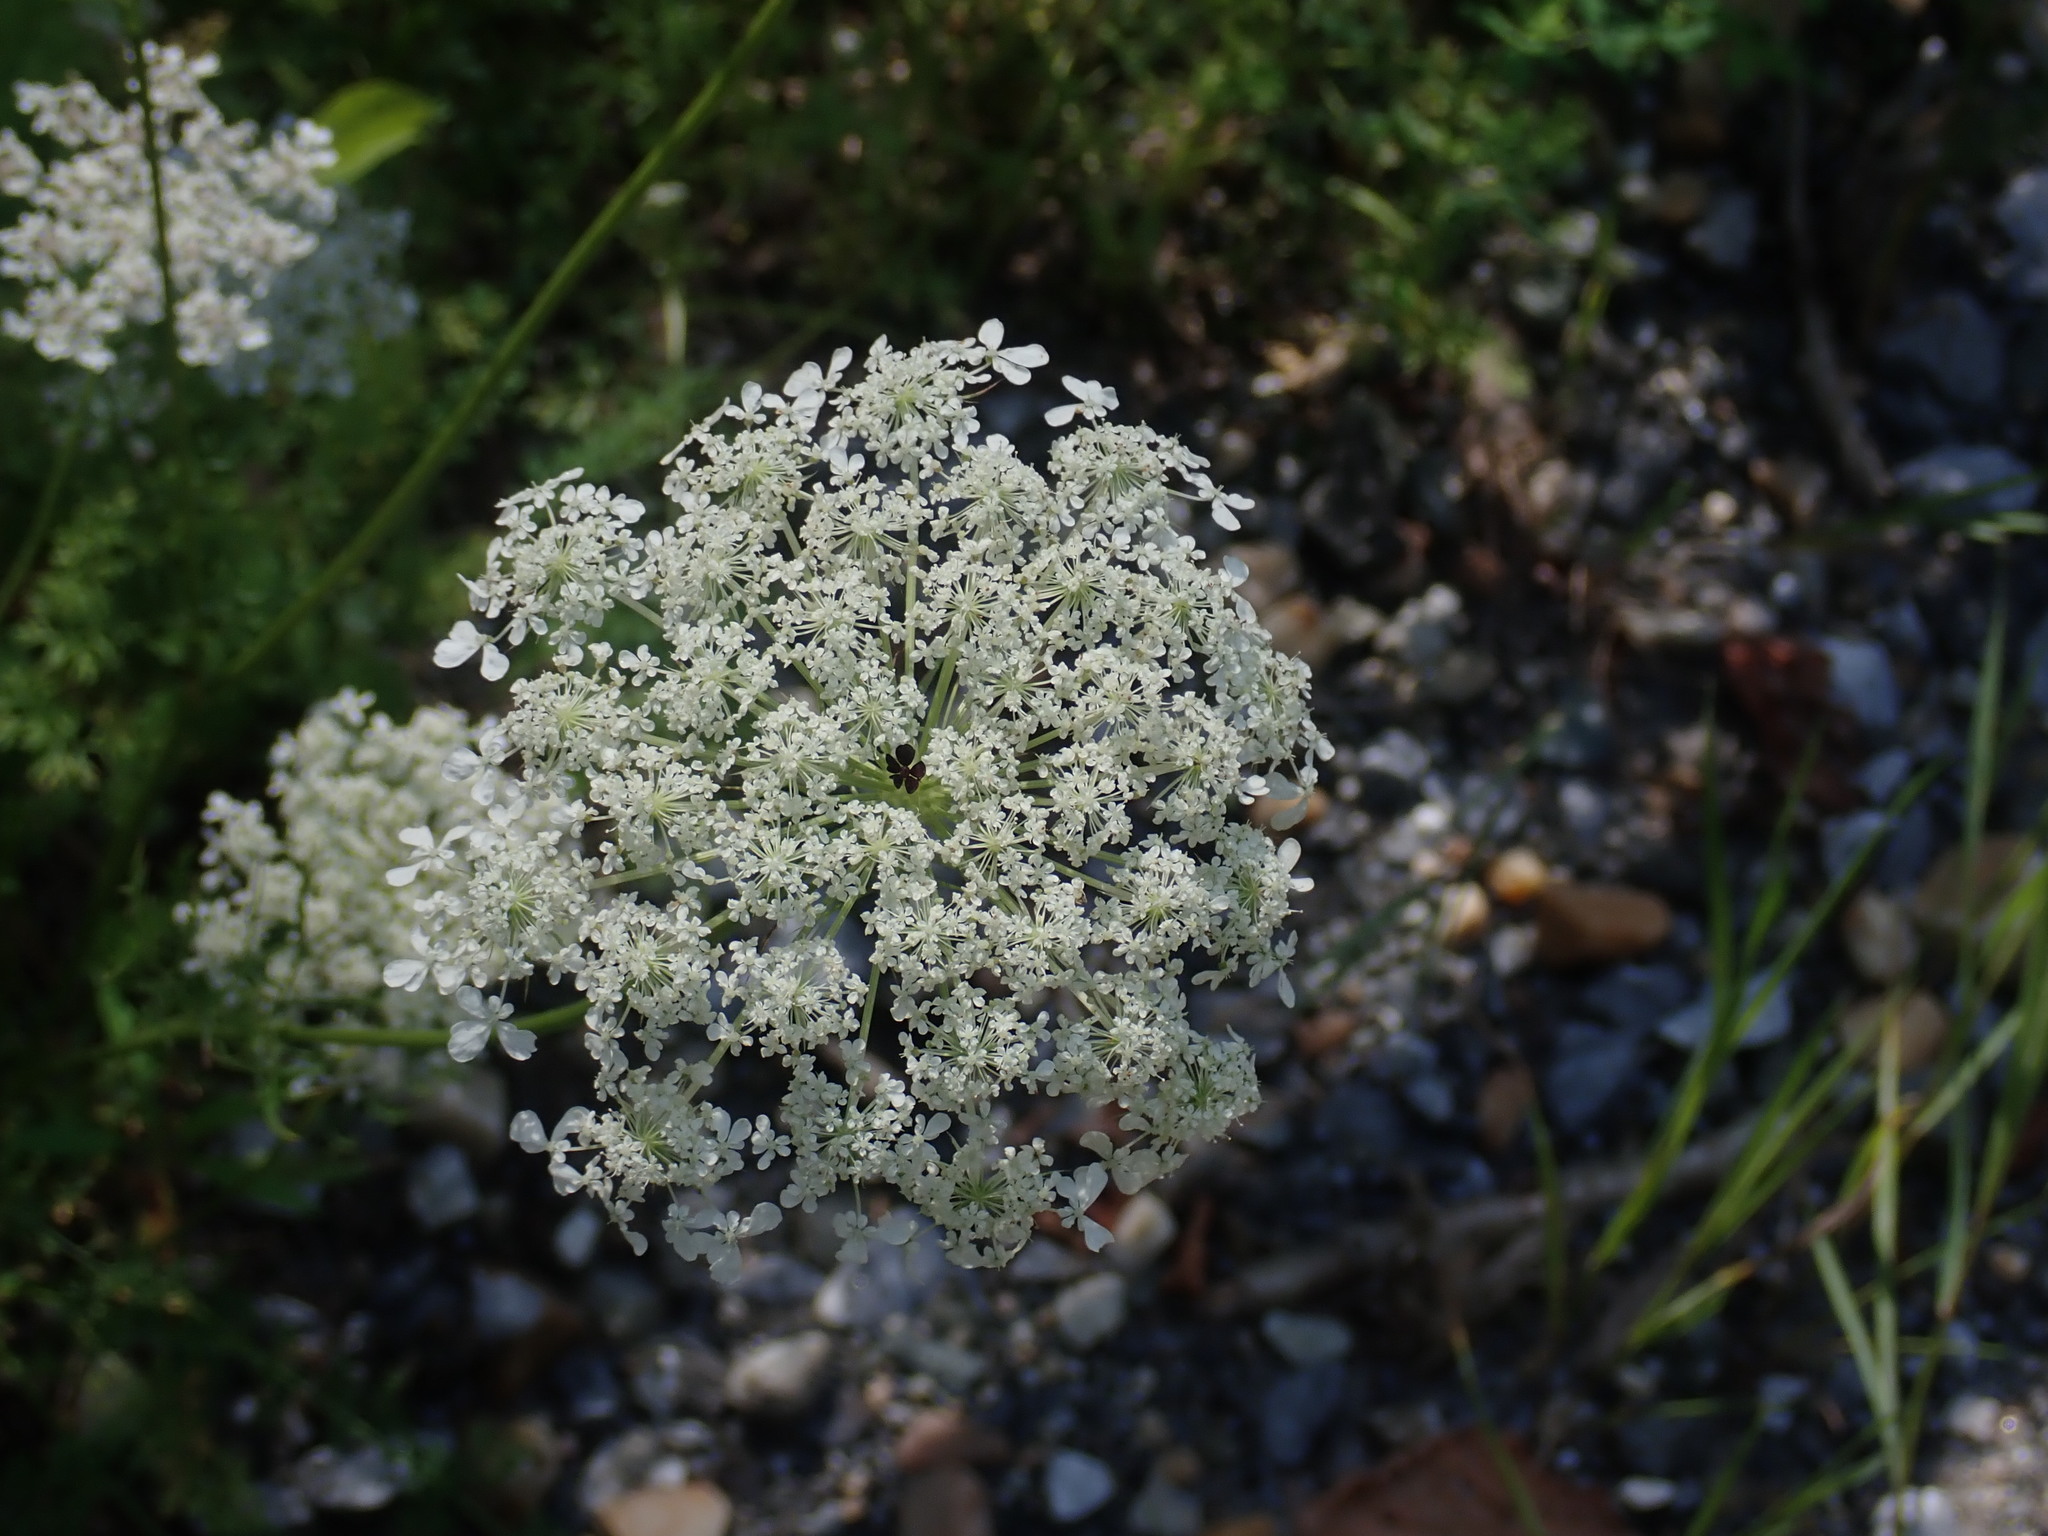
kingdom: Plantae
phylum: Tracheophyta
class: Magnoliopsida
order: Apiales
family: Apiaceae
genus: Daucus
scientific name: Daucus carota
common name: Wild carrot
